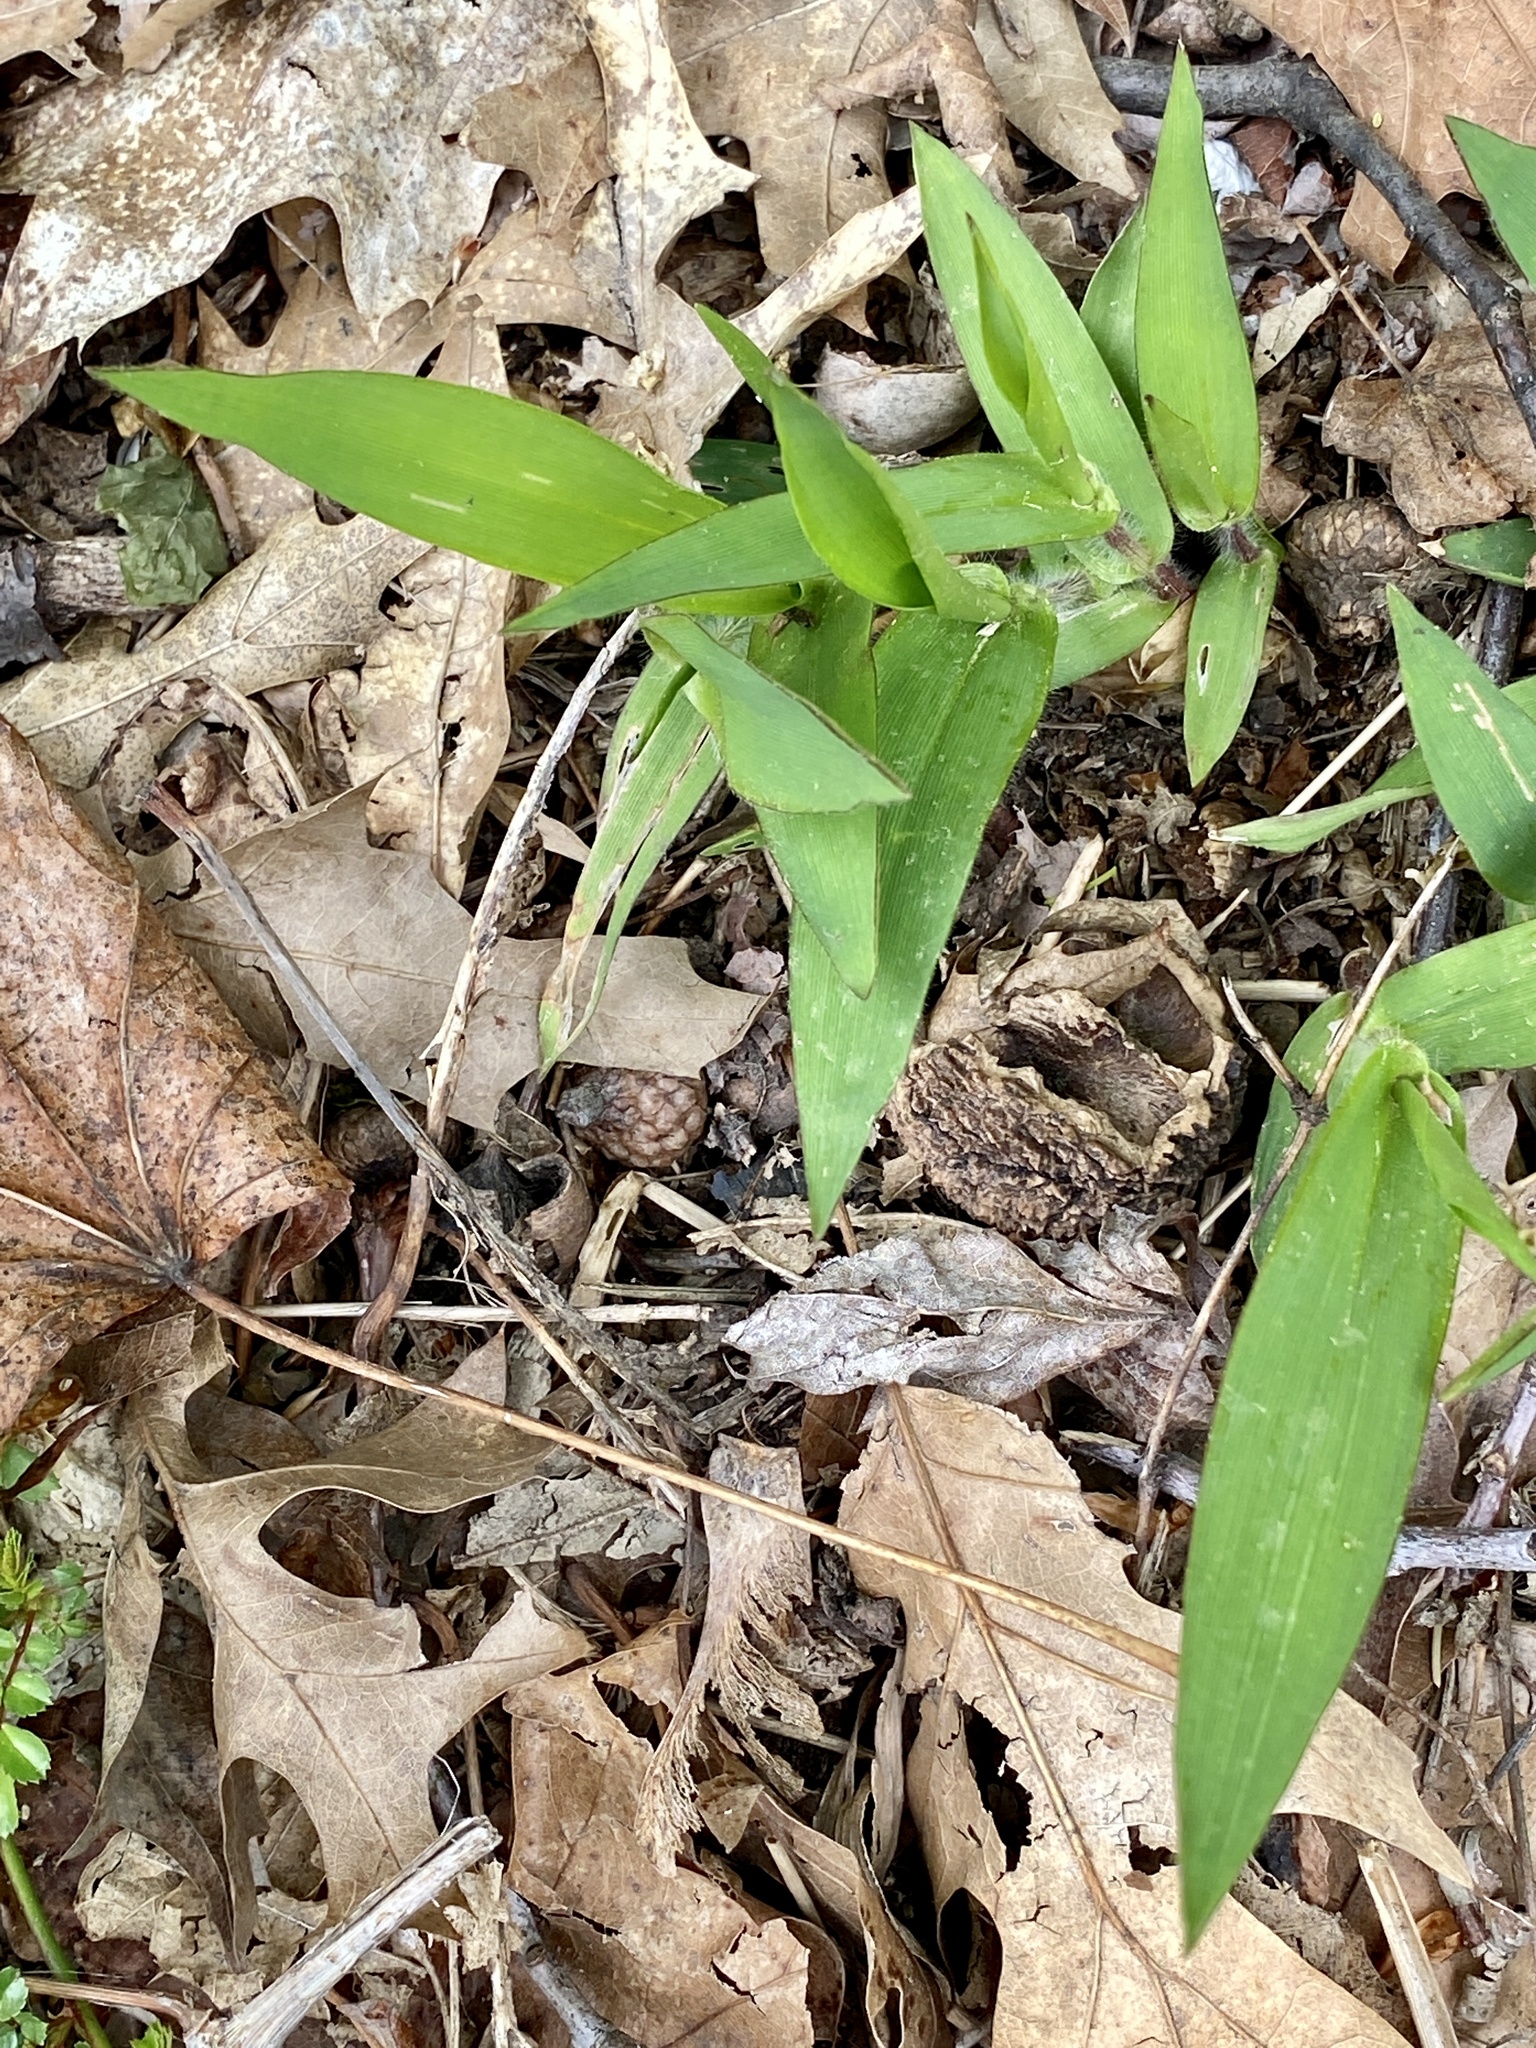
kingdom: Plantae
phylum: Tracheophyta
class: Liliopsida
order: Poales
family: Poaceae
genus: Dichanthelium
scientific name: Dichanthelium clandestinum
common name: Deer-tongue grass
